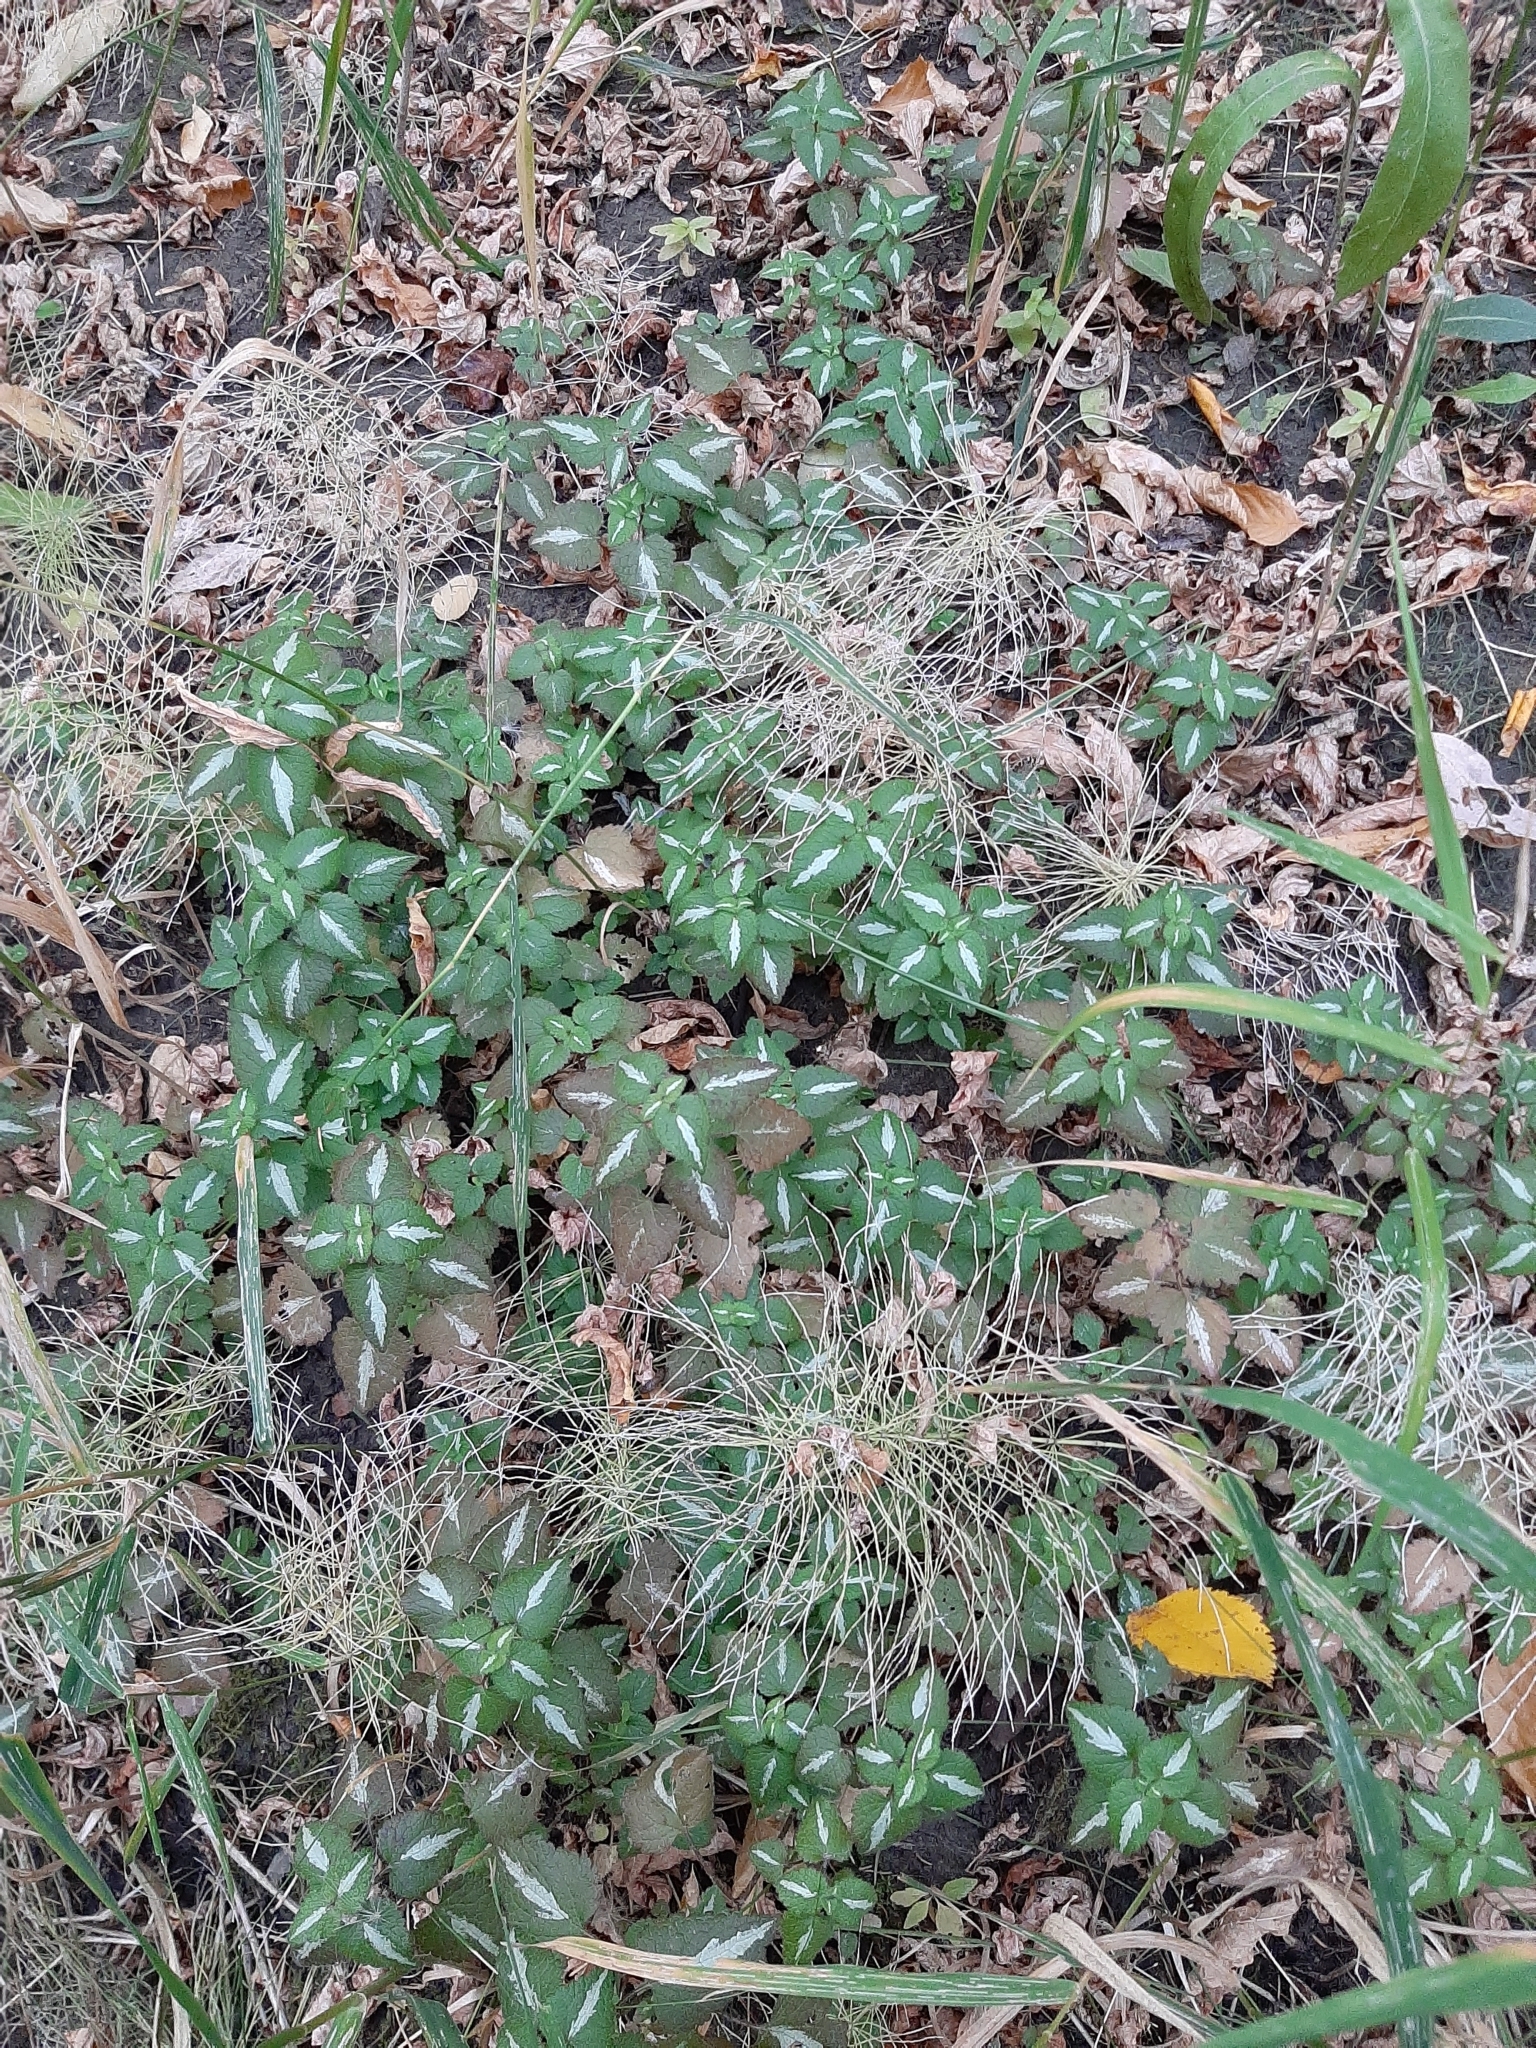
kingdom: Plantae
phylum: Tracheophyta
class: Magnoliopsida
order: Lamiales
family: Lamiaceae
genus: Lamium
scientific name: Lamium maculatum
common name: Spotted dead-nettle
